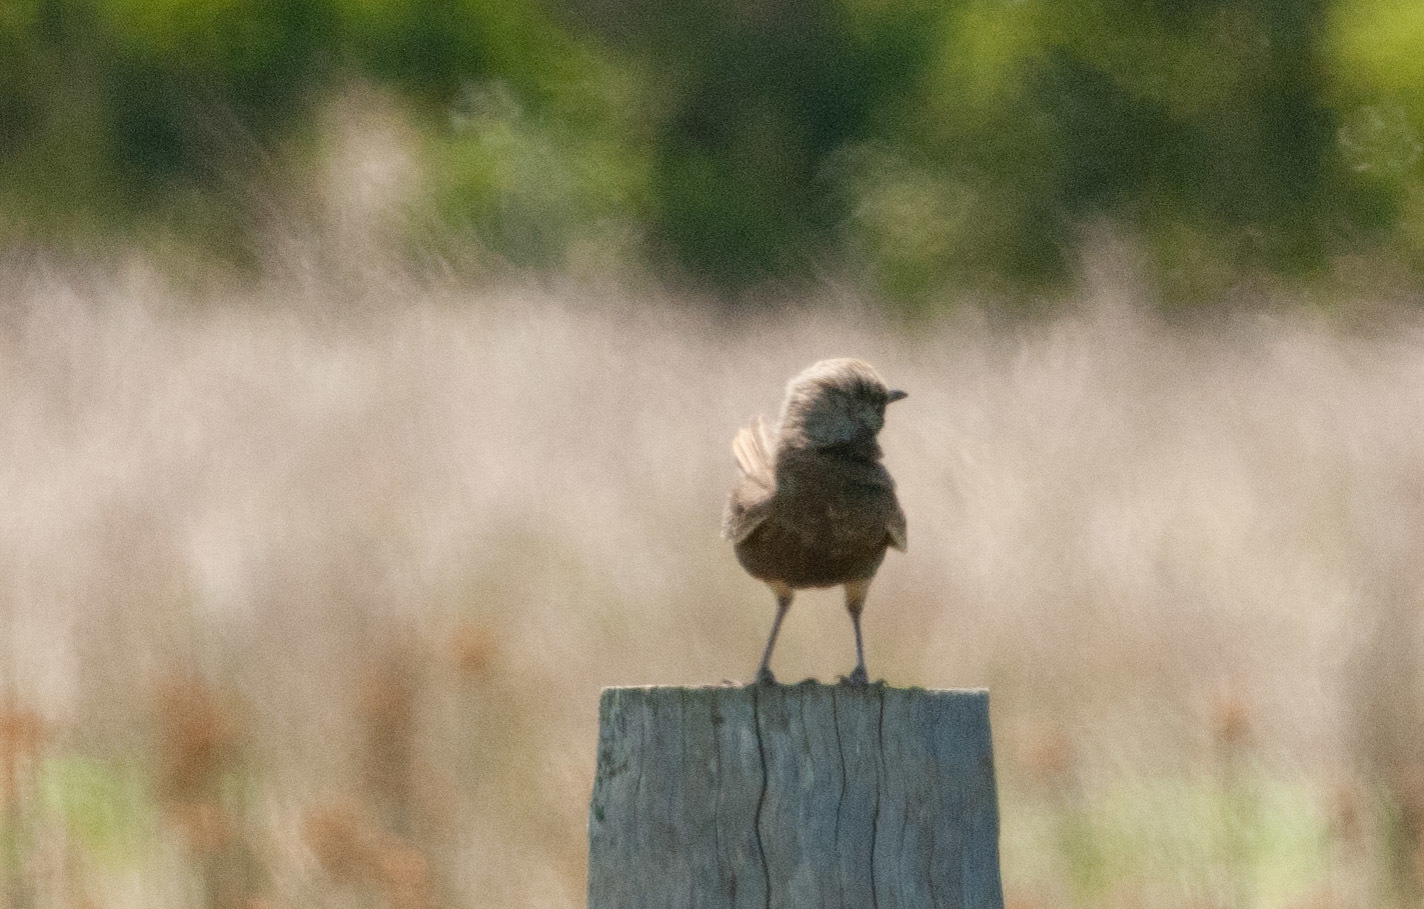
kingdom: Animalia
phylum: Chordata
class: Aves
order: Passeriformes
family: Locustellidae
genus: Megalurus
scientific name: Megalurus cruralis
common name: Brown songlark
